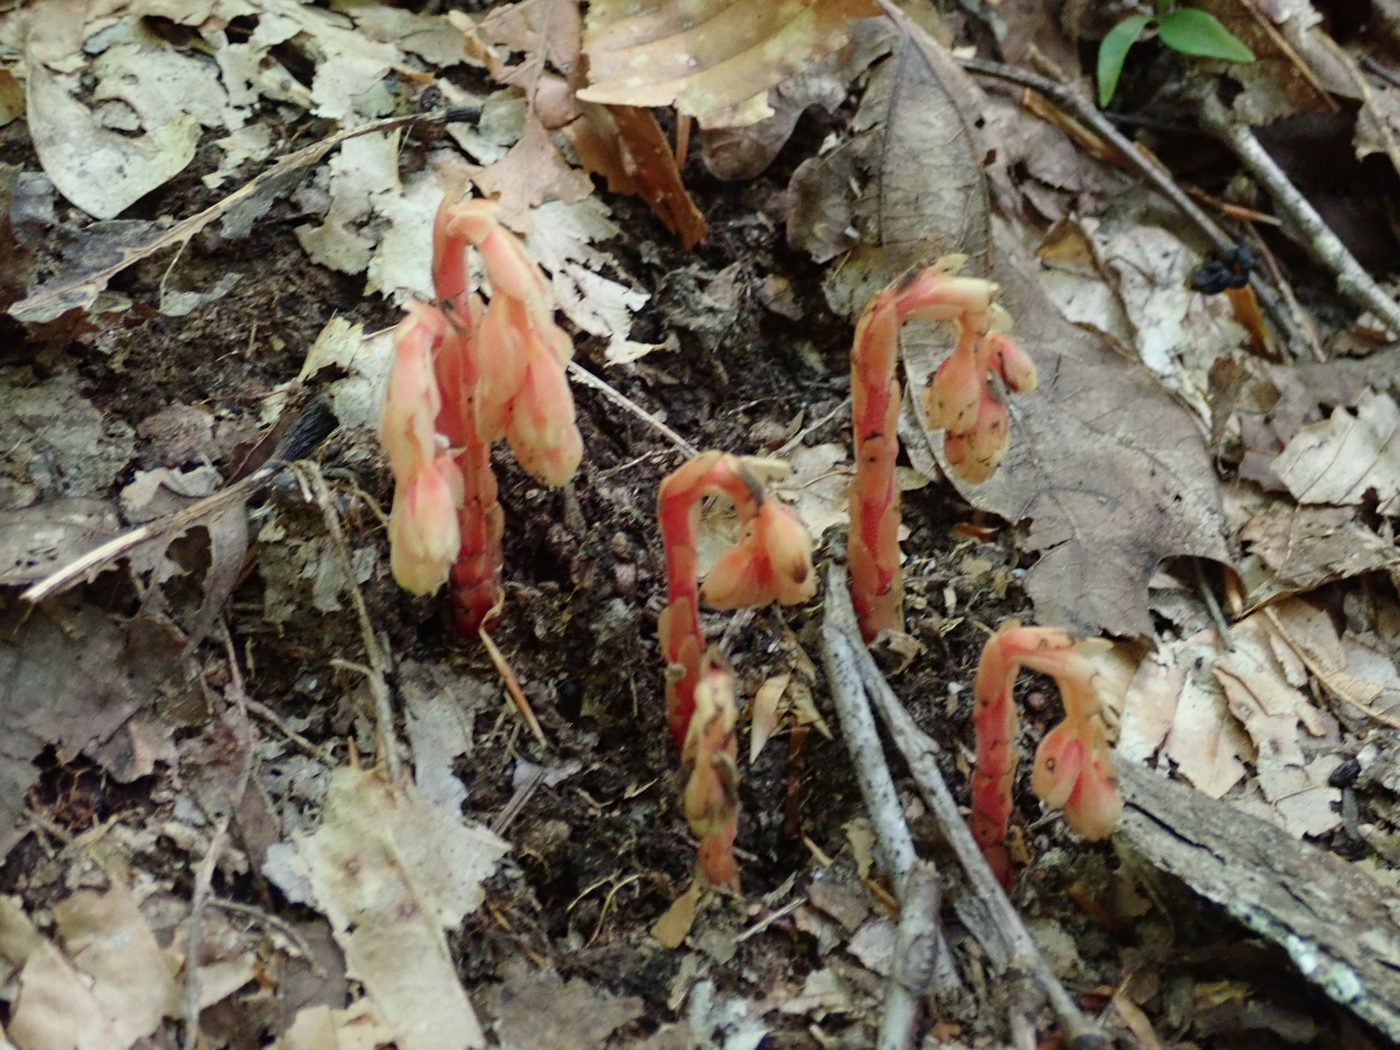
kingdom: Plantae
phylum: Tracheophyta
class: Magnoliopsida
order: Ericales
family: Ericaceae
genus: Hypopitys
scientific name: Hypopitys monotropa
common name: Yellow bird's-nest
